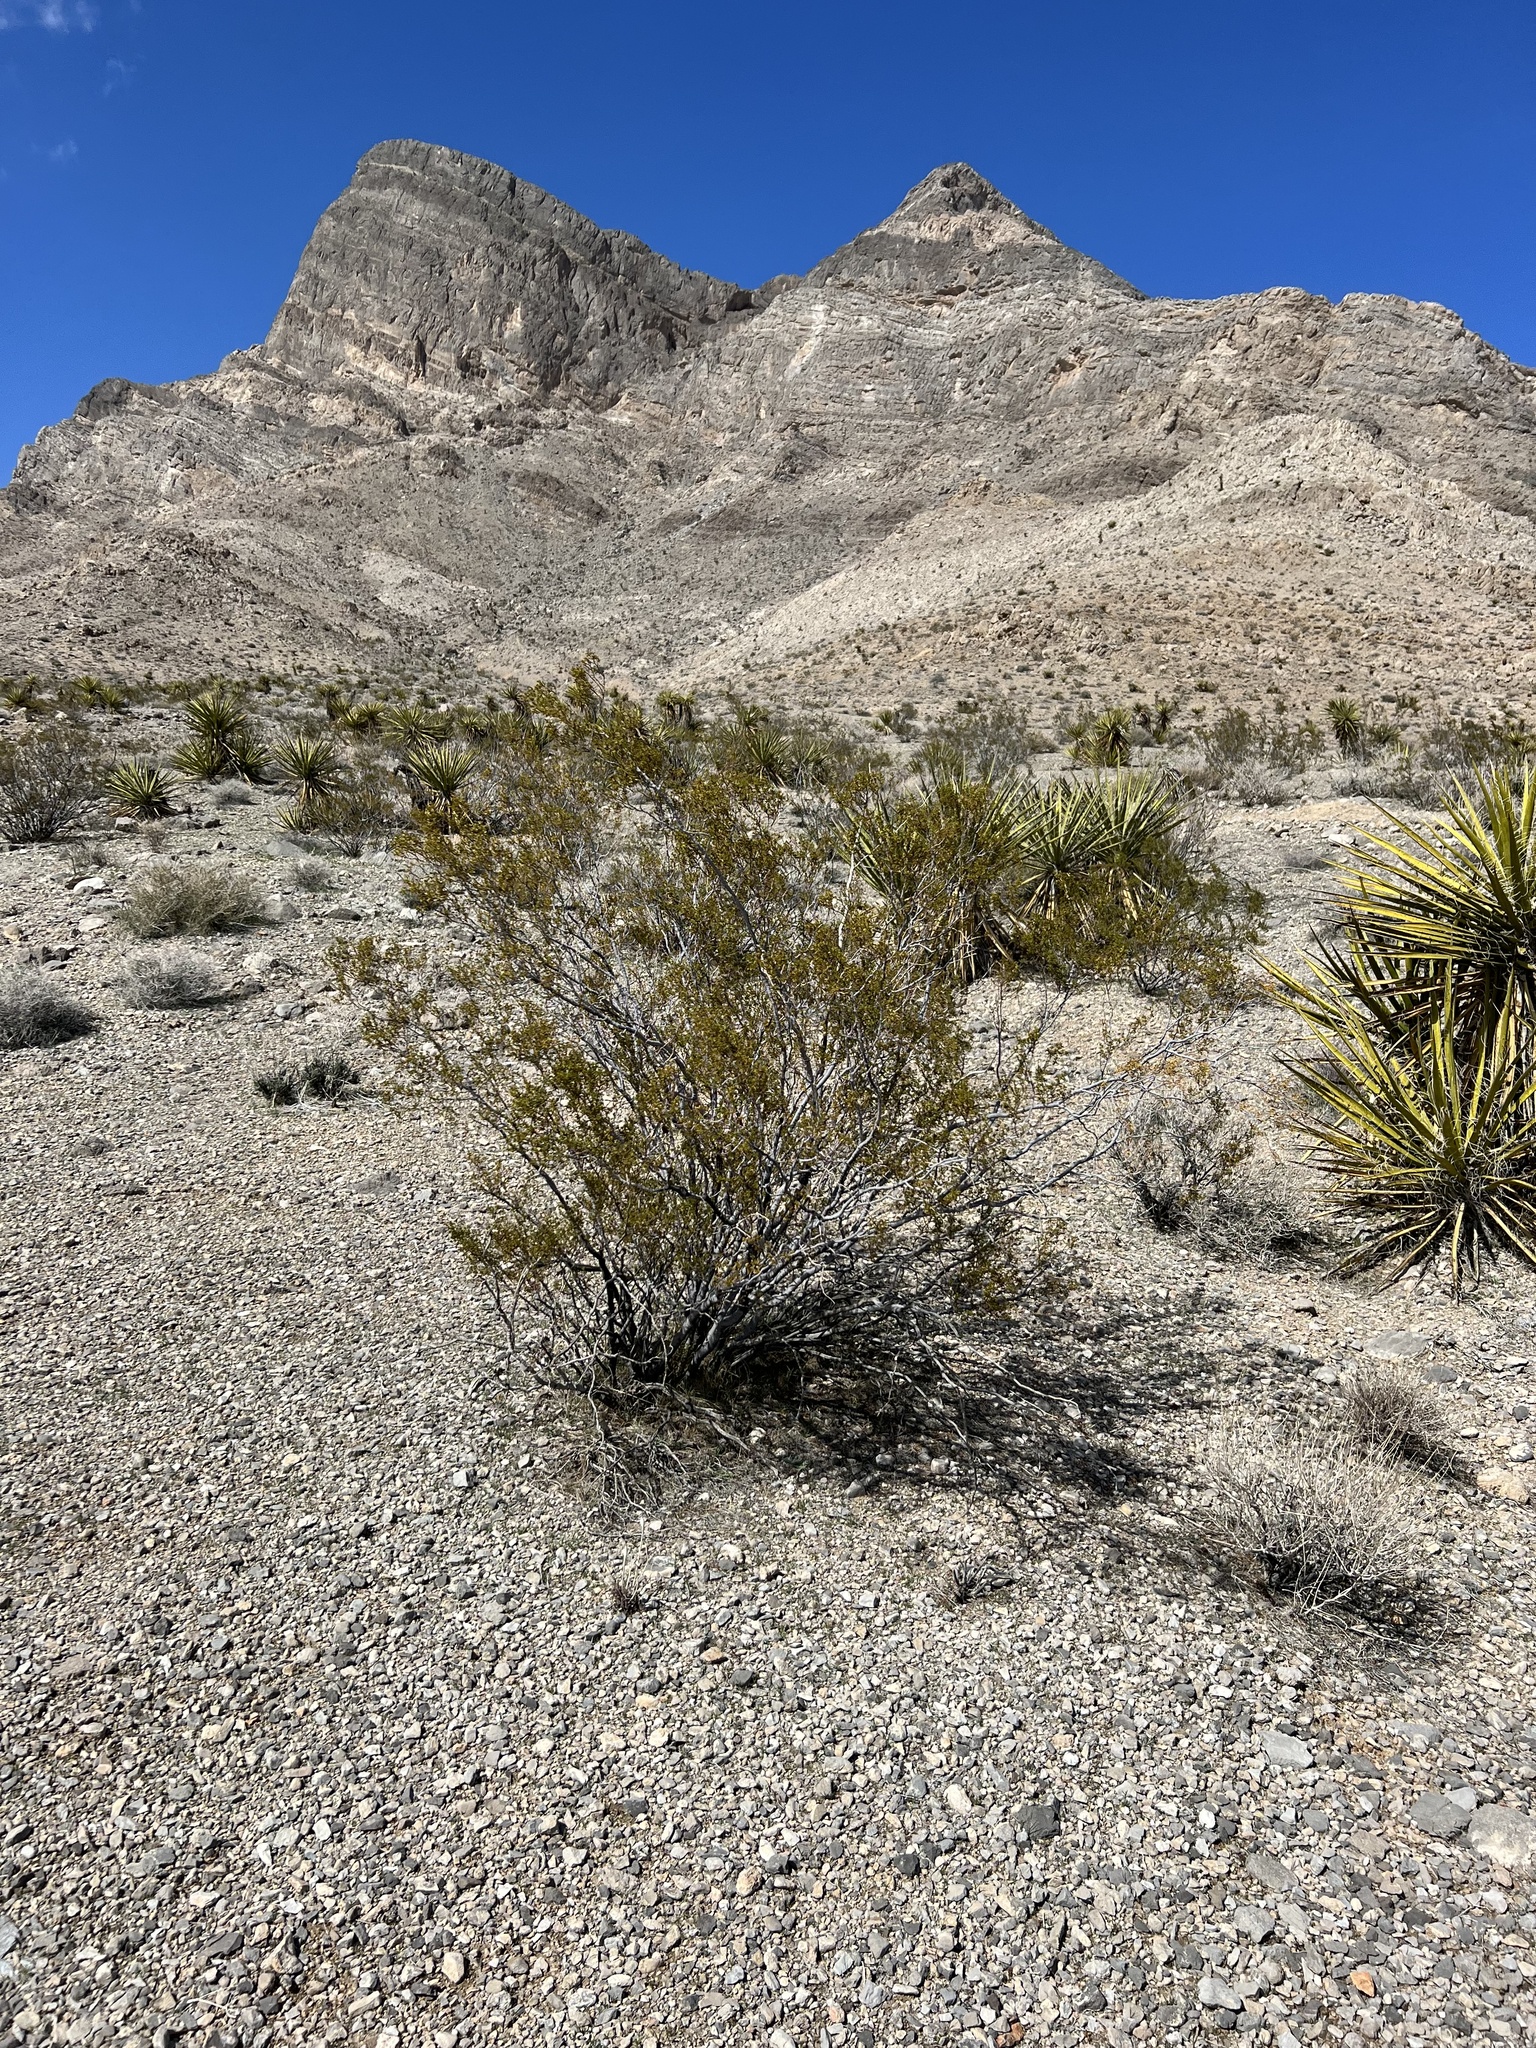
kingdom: Plantae
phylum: Tracheophyta
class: Magnoliopsida
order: Zygophyllales
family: Zygophyllaceae
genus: Larrea
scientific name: Larrea tridentata
